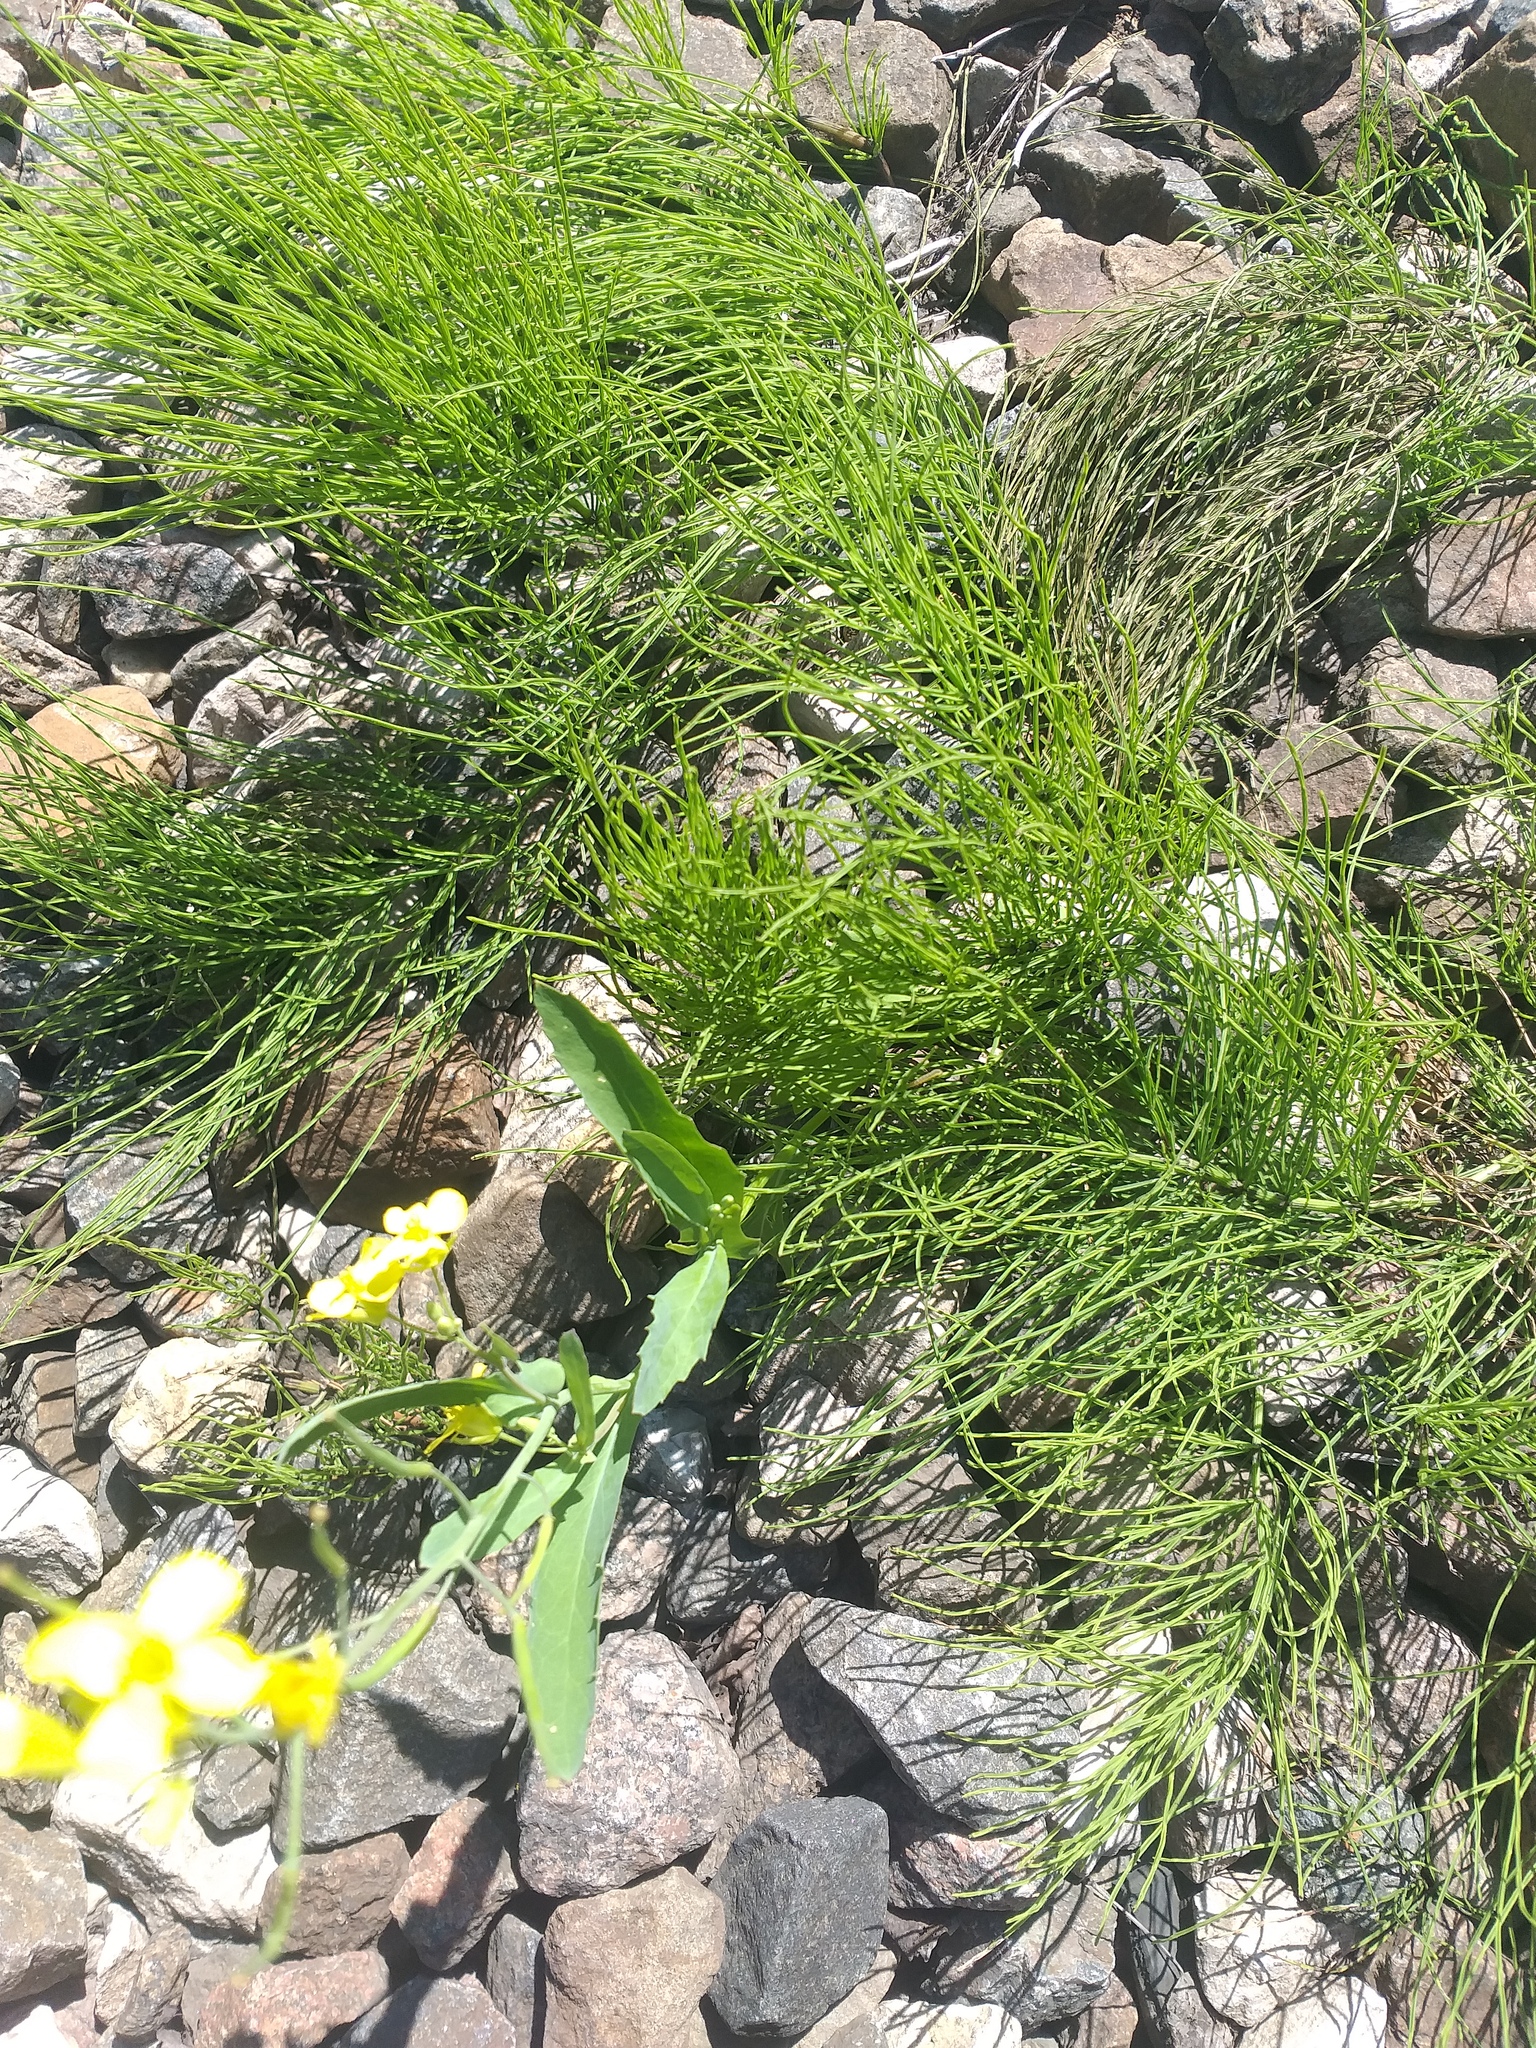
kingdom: Plantae
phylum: Tracheophyta
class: Magnoliopsida
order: Brassicales
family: Brassicaceae
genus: Brassica
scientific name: Brassica napus
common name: Rape
